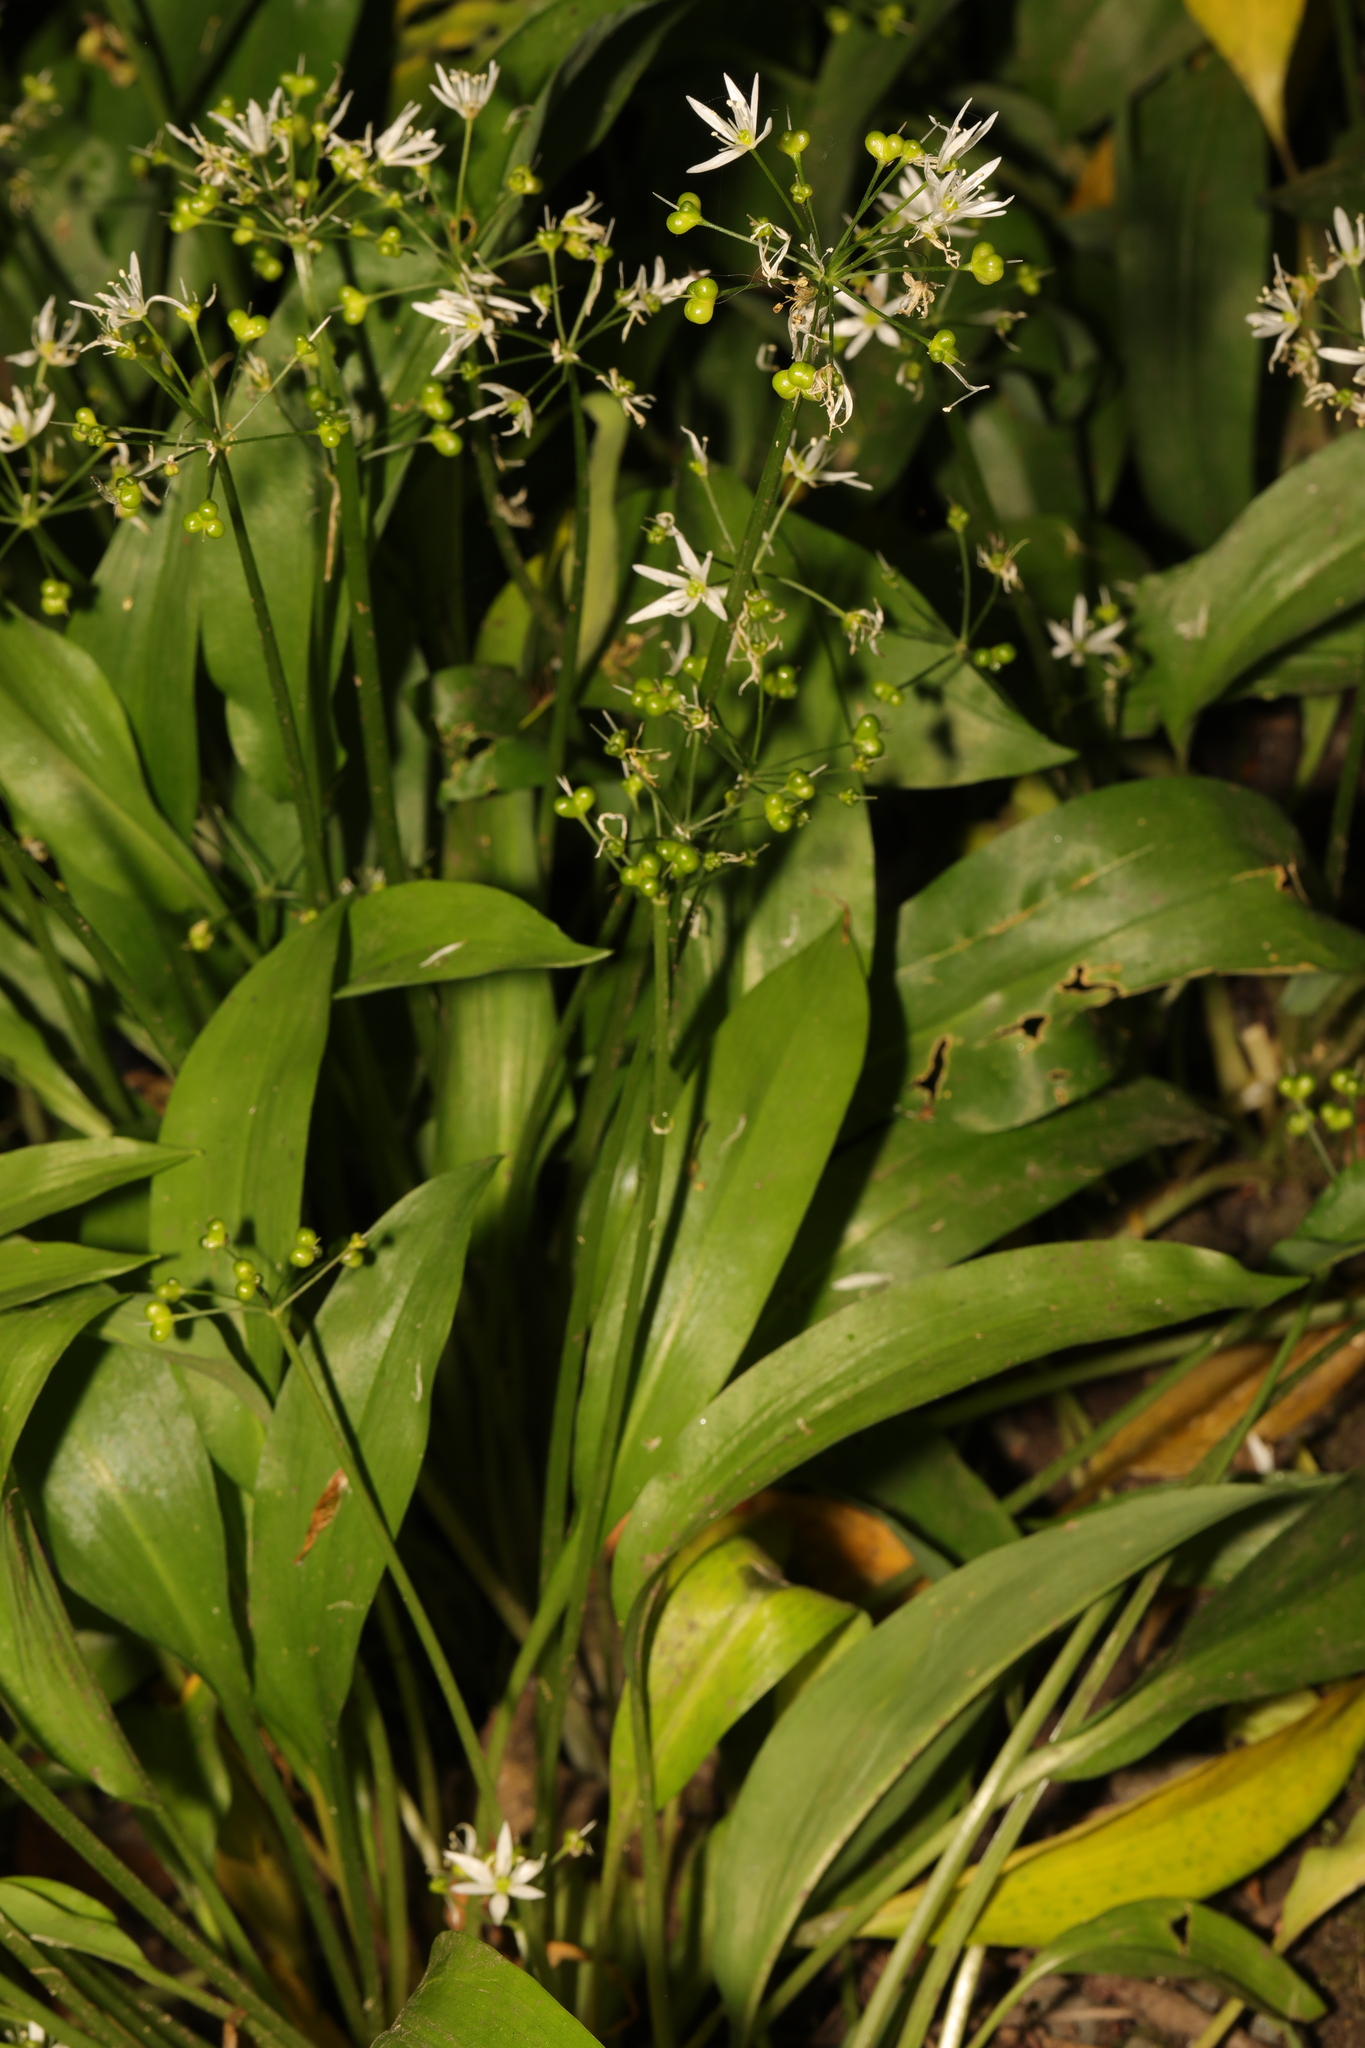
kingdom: Plantae
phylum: Tracheophyta
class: Liliopsida
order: Asparagales
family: Amaryllidaceae
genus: Allium
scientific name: Allium ursinum
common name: Ramsons
